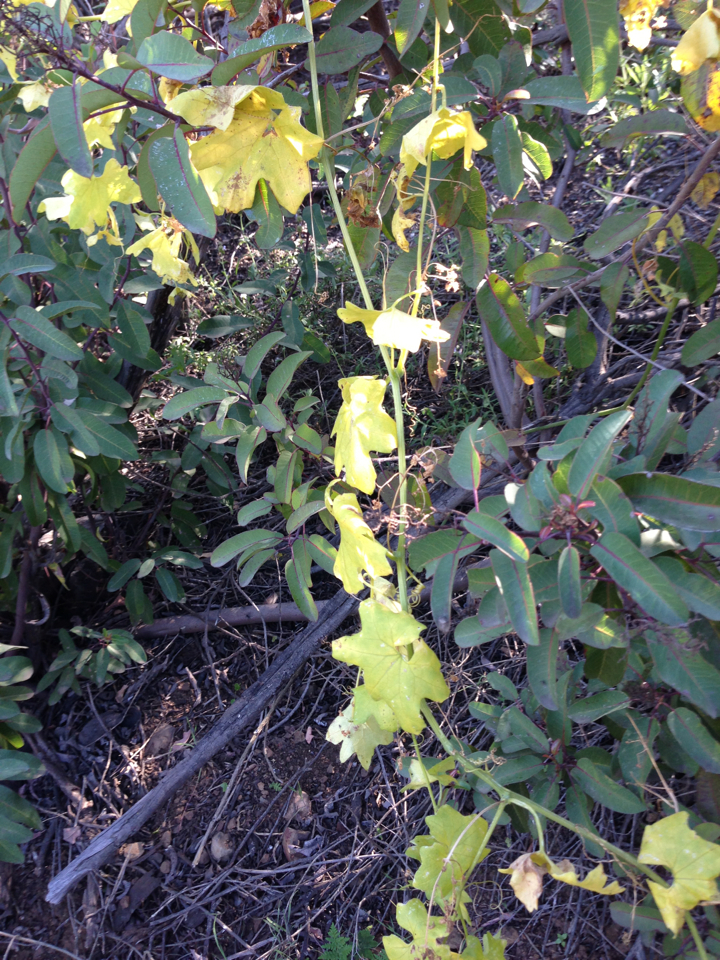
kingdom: Plantae
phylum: Tracheophyta
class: Magnoliopsida
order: Cucurbitales
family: Cucurbitaceae
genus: Marah
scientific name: Marah macrocarpa
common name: Cucamonga manroot
